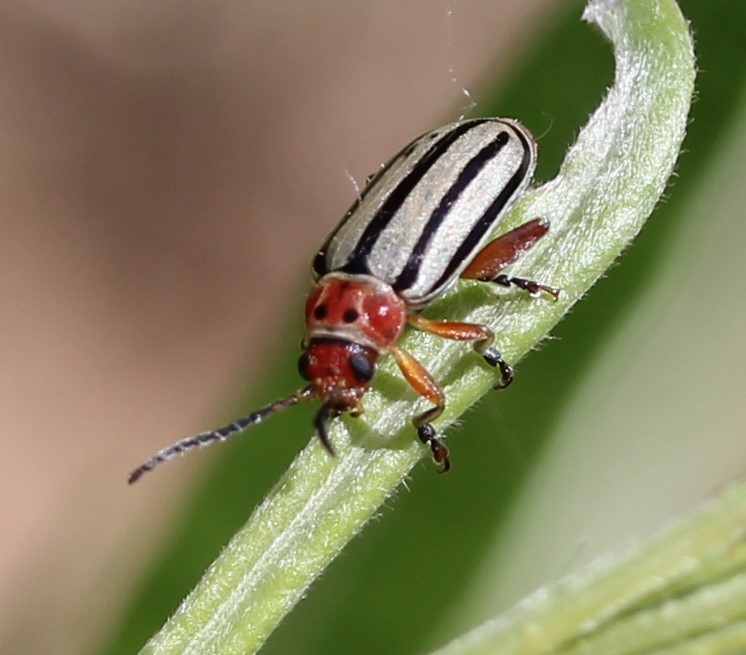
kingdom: Animalia
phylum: Arthropoda
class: Insecta
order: Coleoptera
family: Chrysomelidae
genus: Disonycha
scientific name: Disonycha alternata
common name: Striped willow leaf beetle
